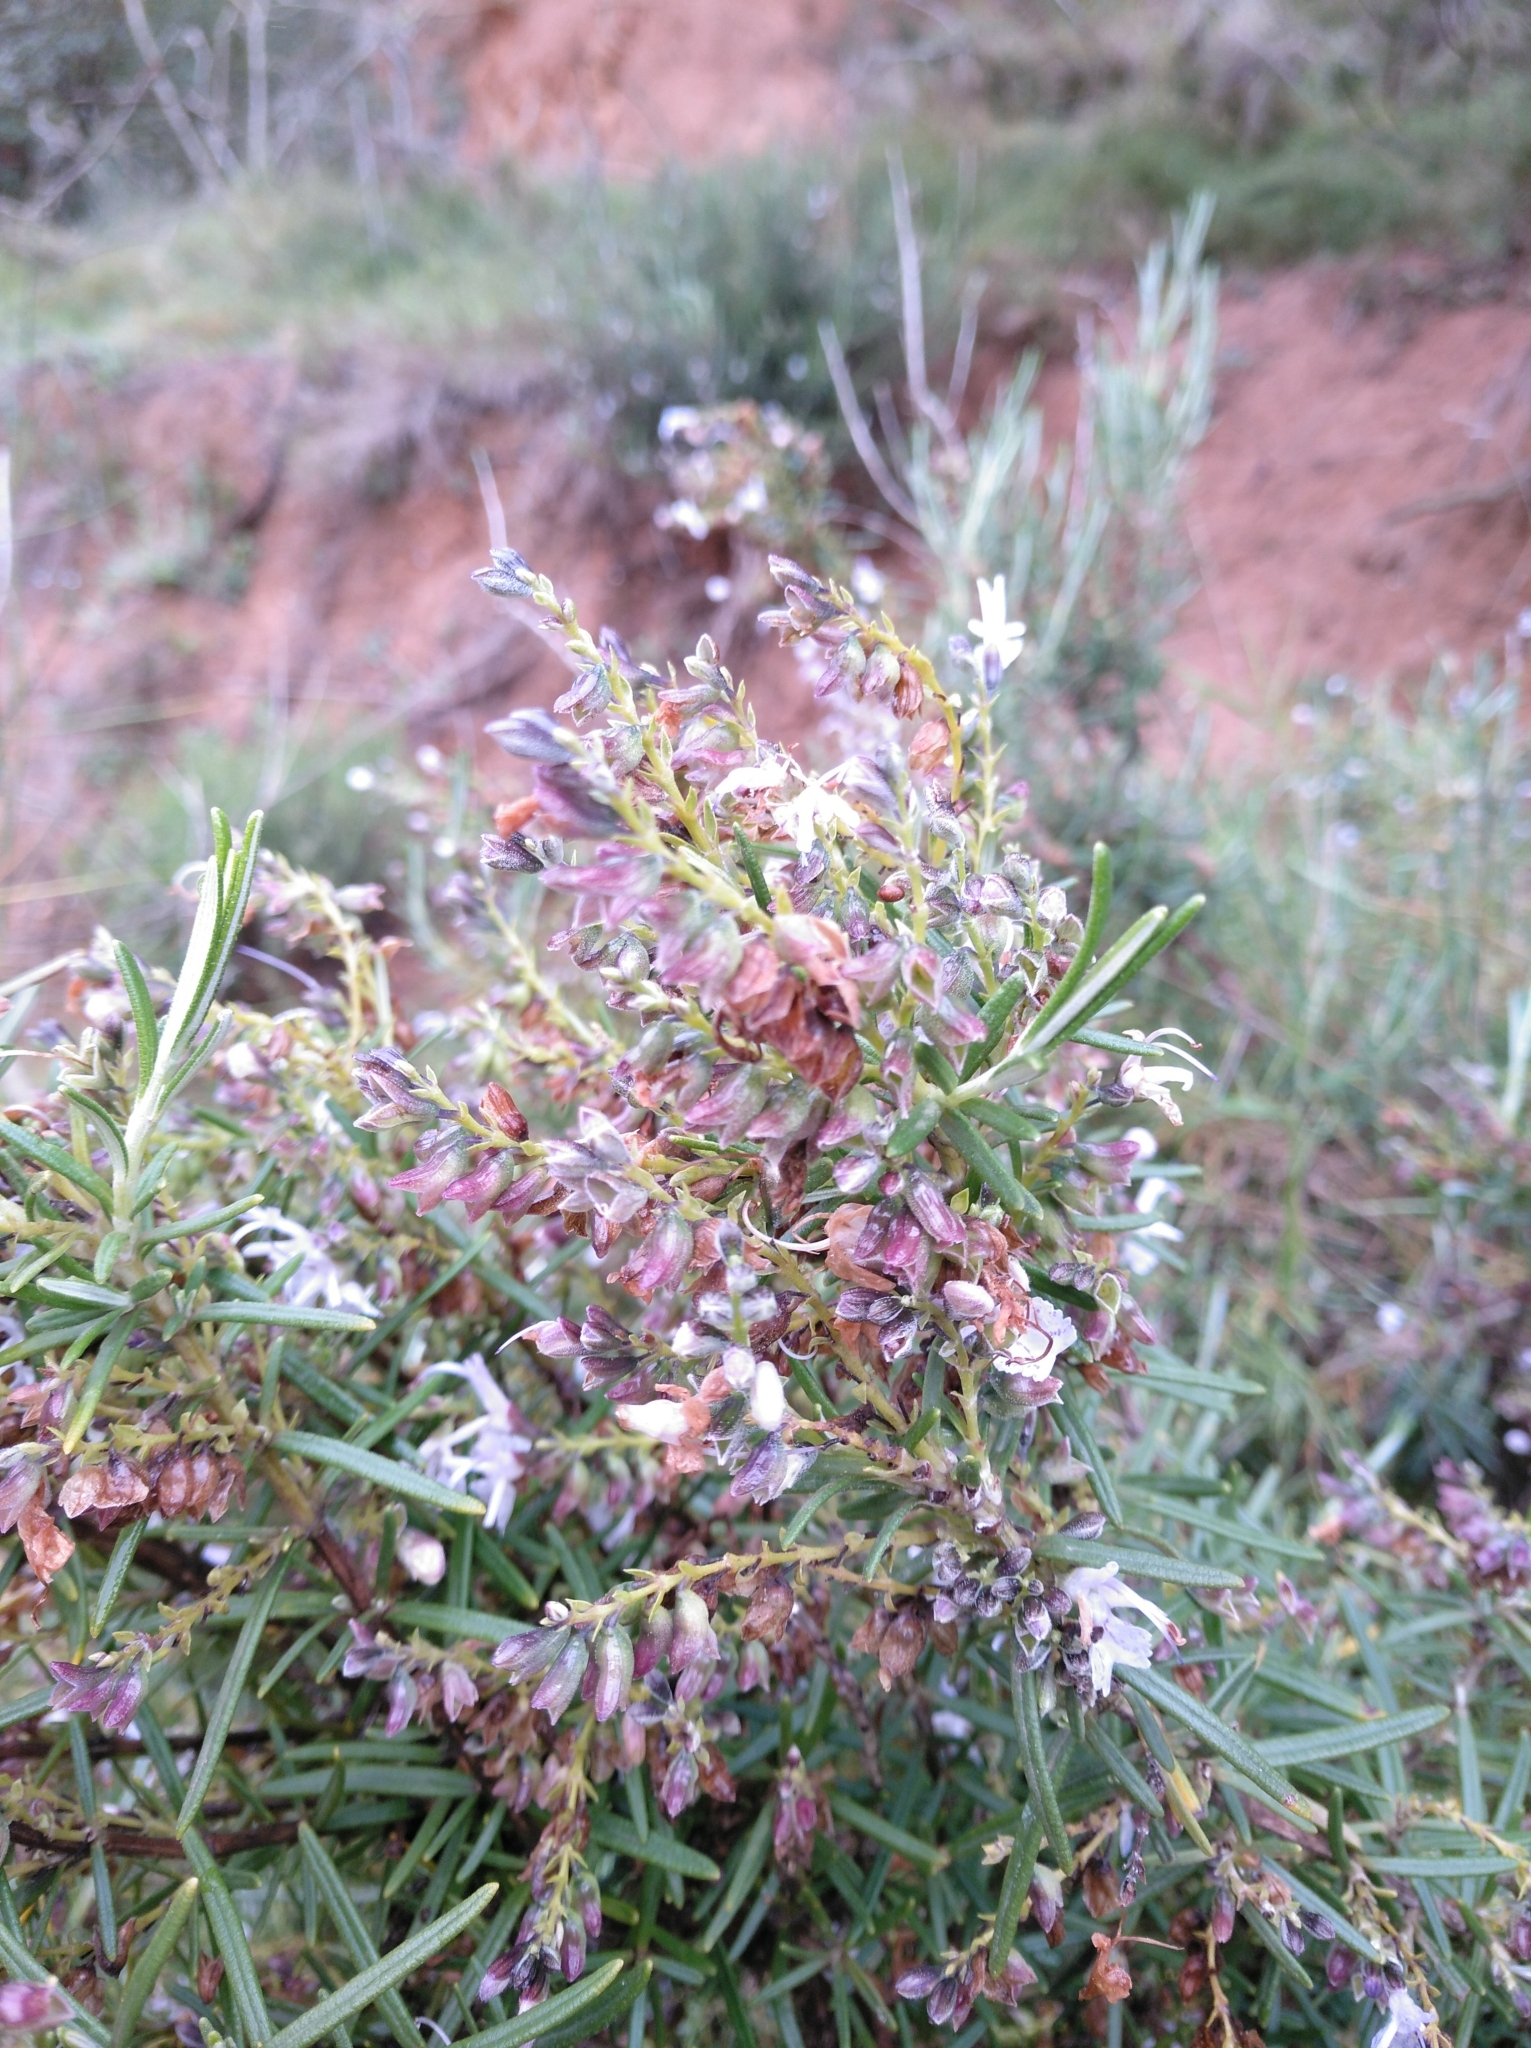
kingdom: Plantae
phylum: Tracheophyta
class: Magnoliopsida
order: Lamiales
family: Lamiaceae
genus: Salvia
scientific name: Salvia rosmarinus
